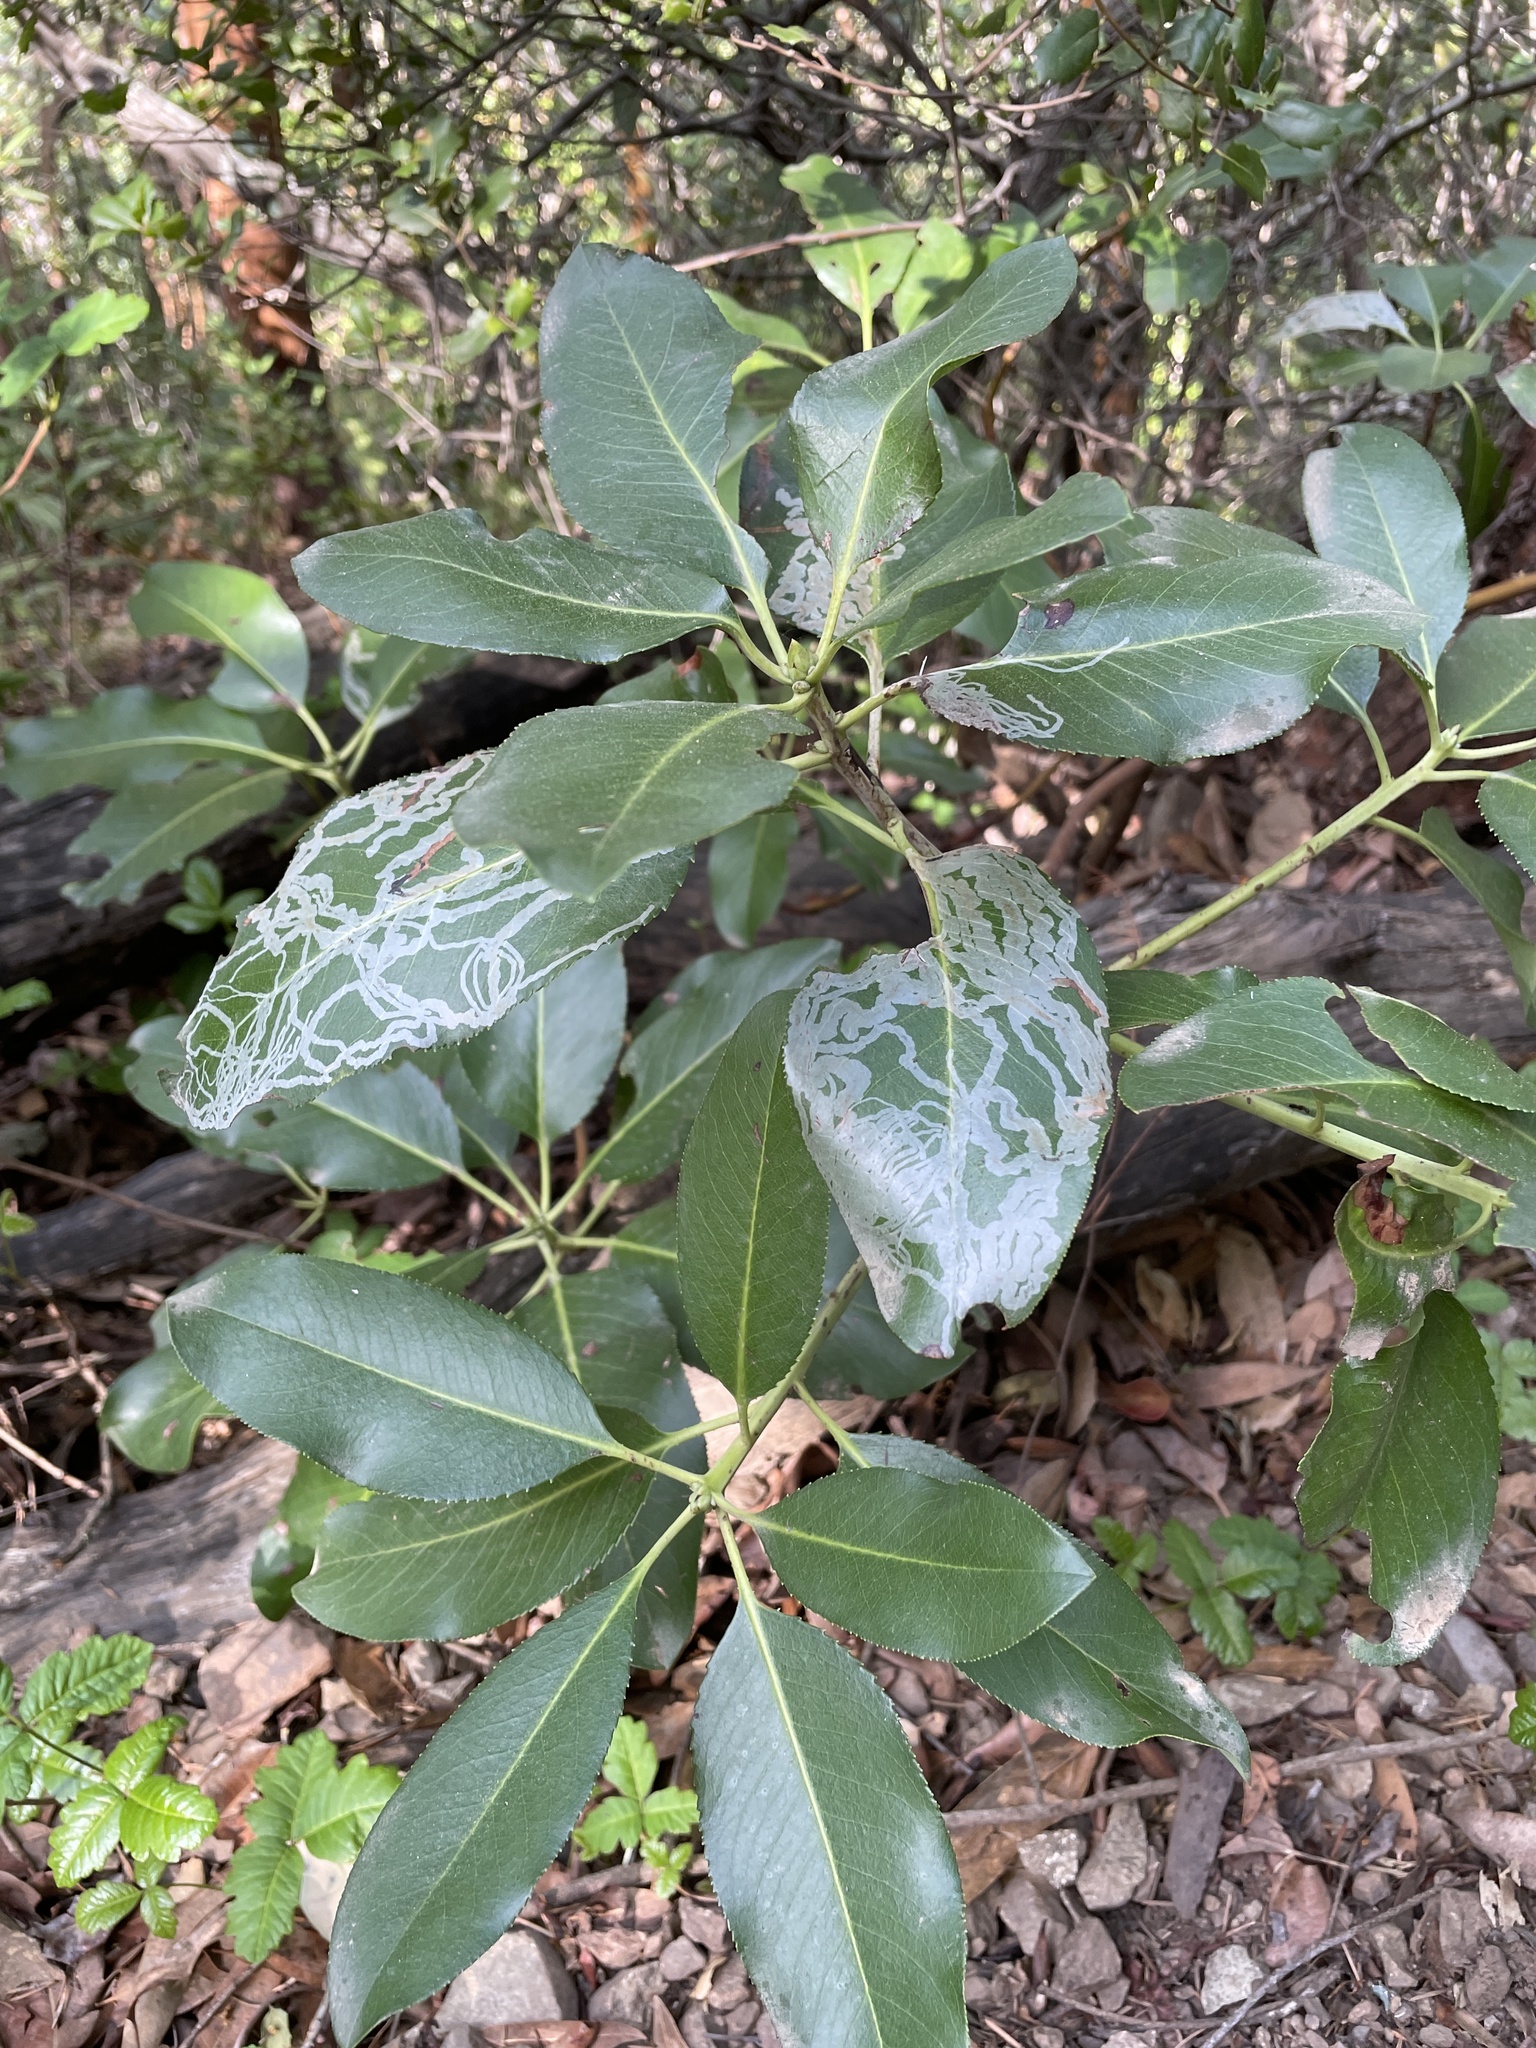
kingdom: Animalia
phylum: Arthropoda
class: Insecta
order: Lepidoptera
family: Gracillariidae
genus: Marmara
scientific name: Marmara arbutiella
